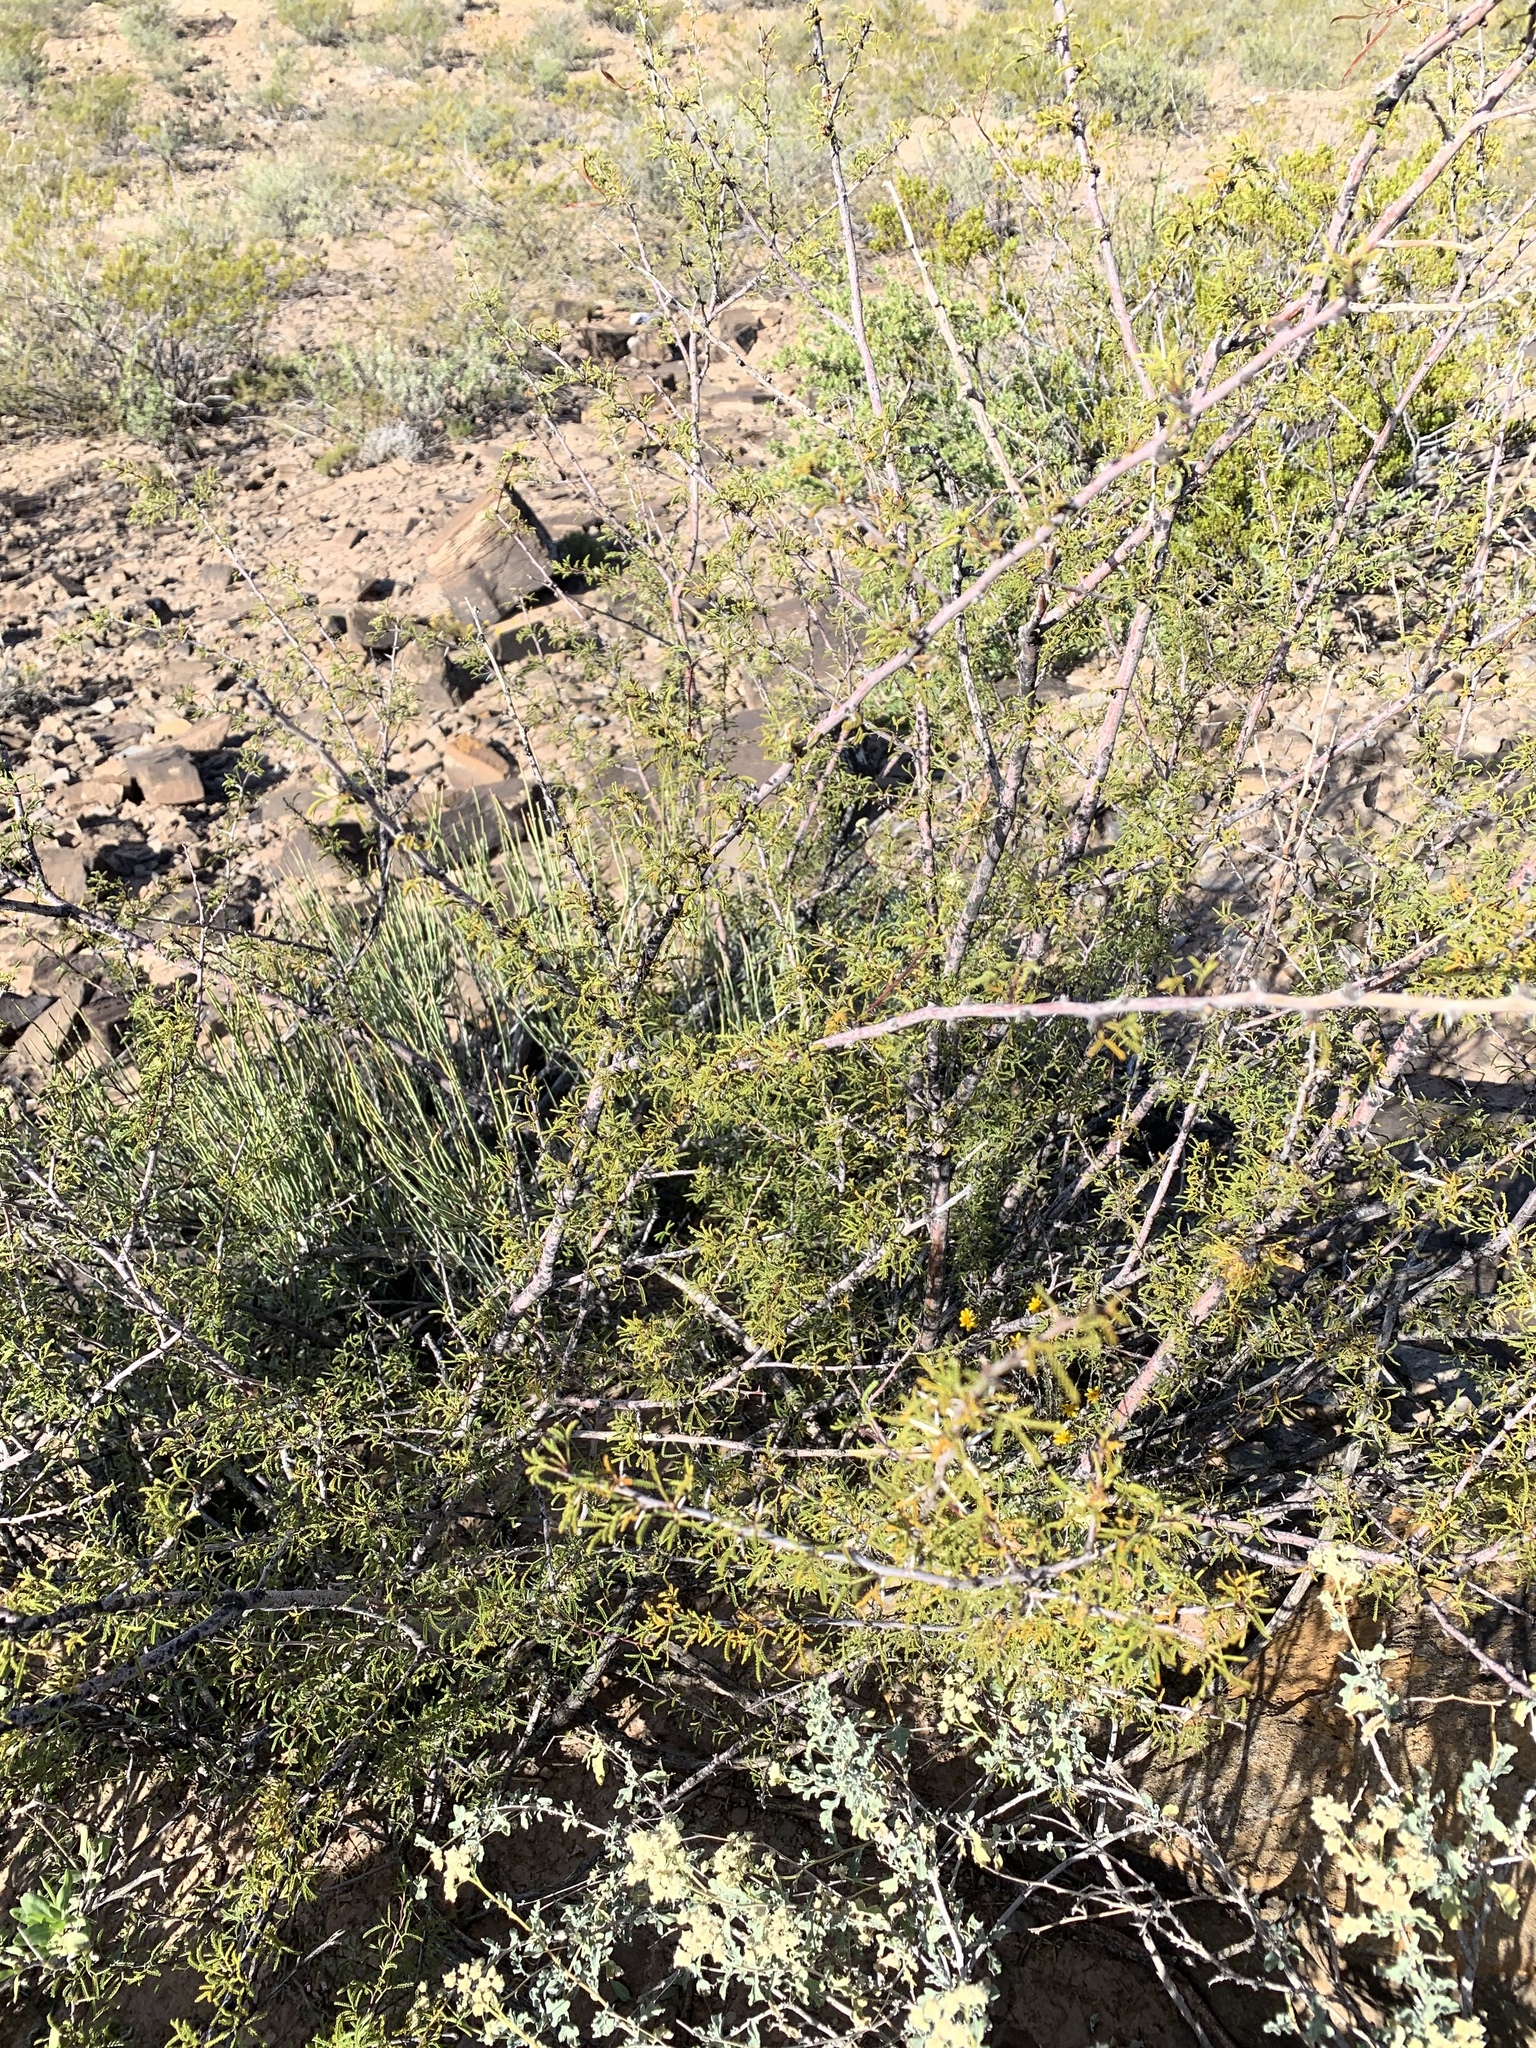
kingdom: Plantae
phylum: Tracheophyta
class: Magnoliopsida
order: Fabales
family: Fabaceae
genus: Vachellia
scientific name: Vachellia constricta
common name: Mescat acacia
